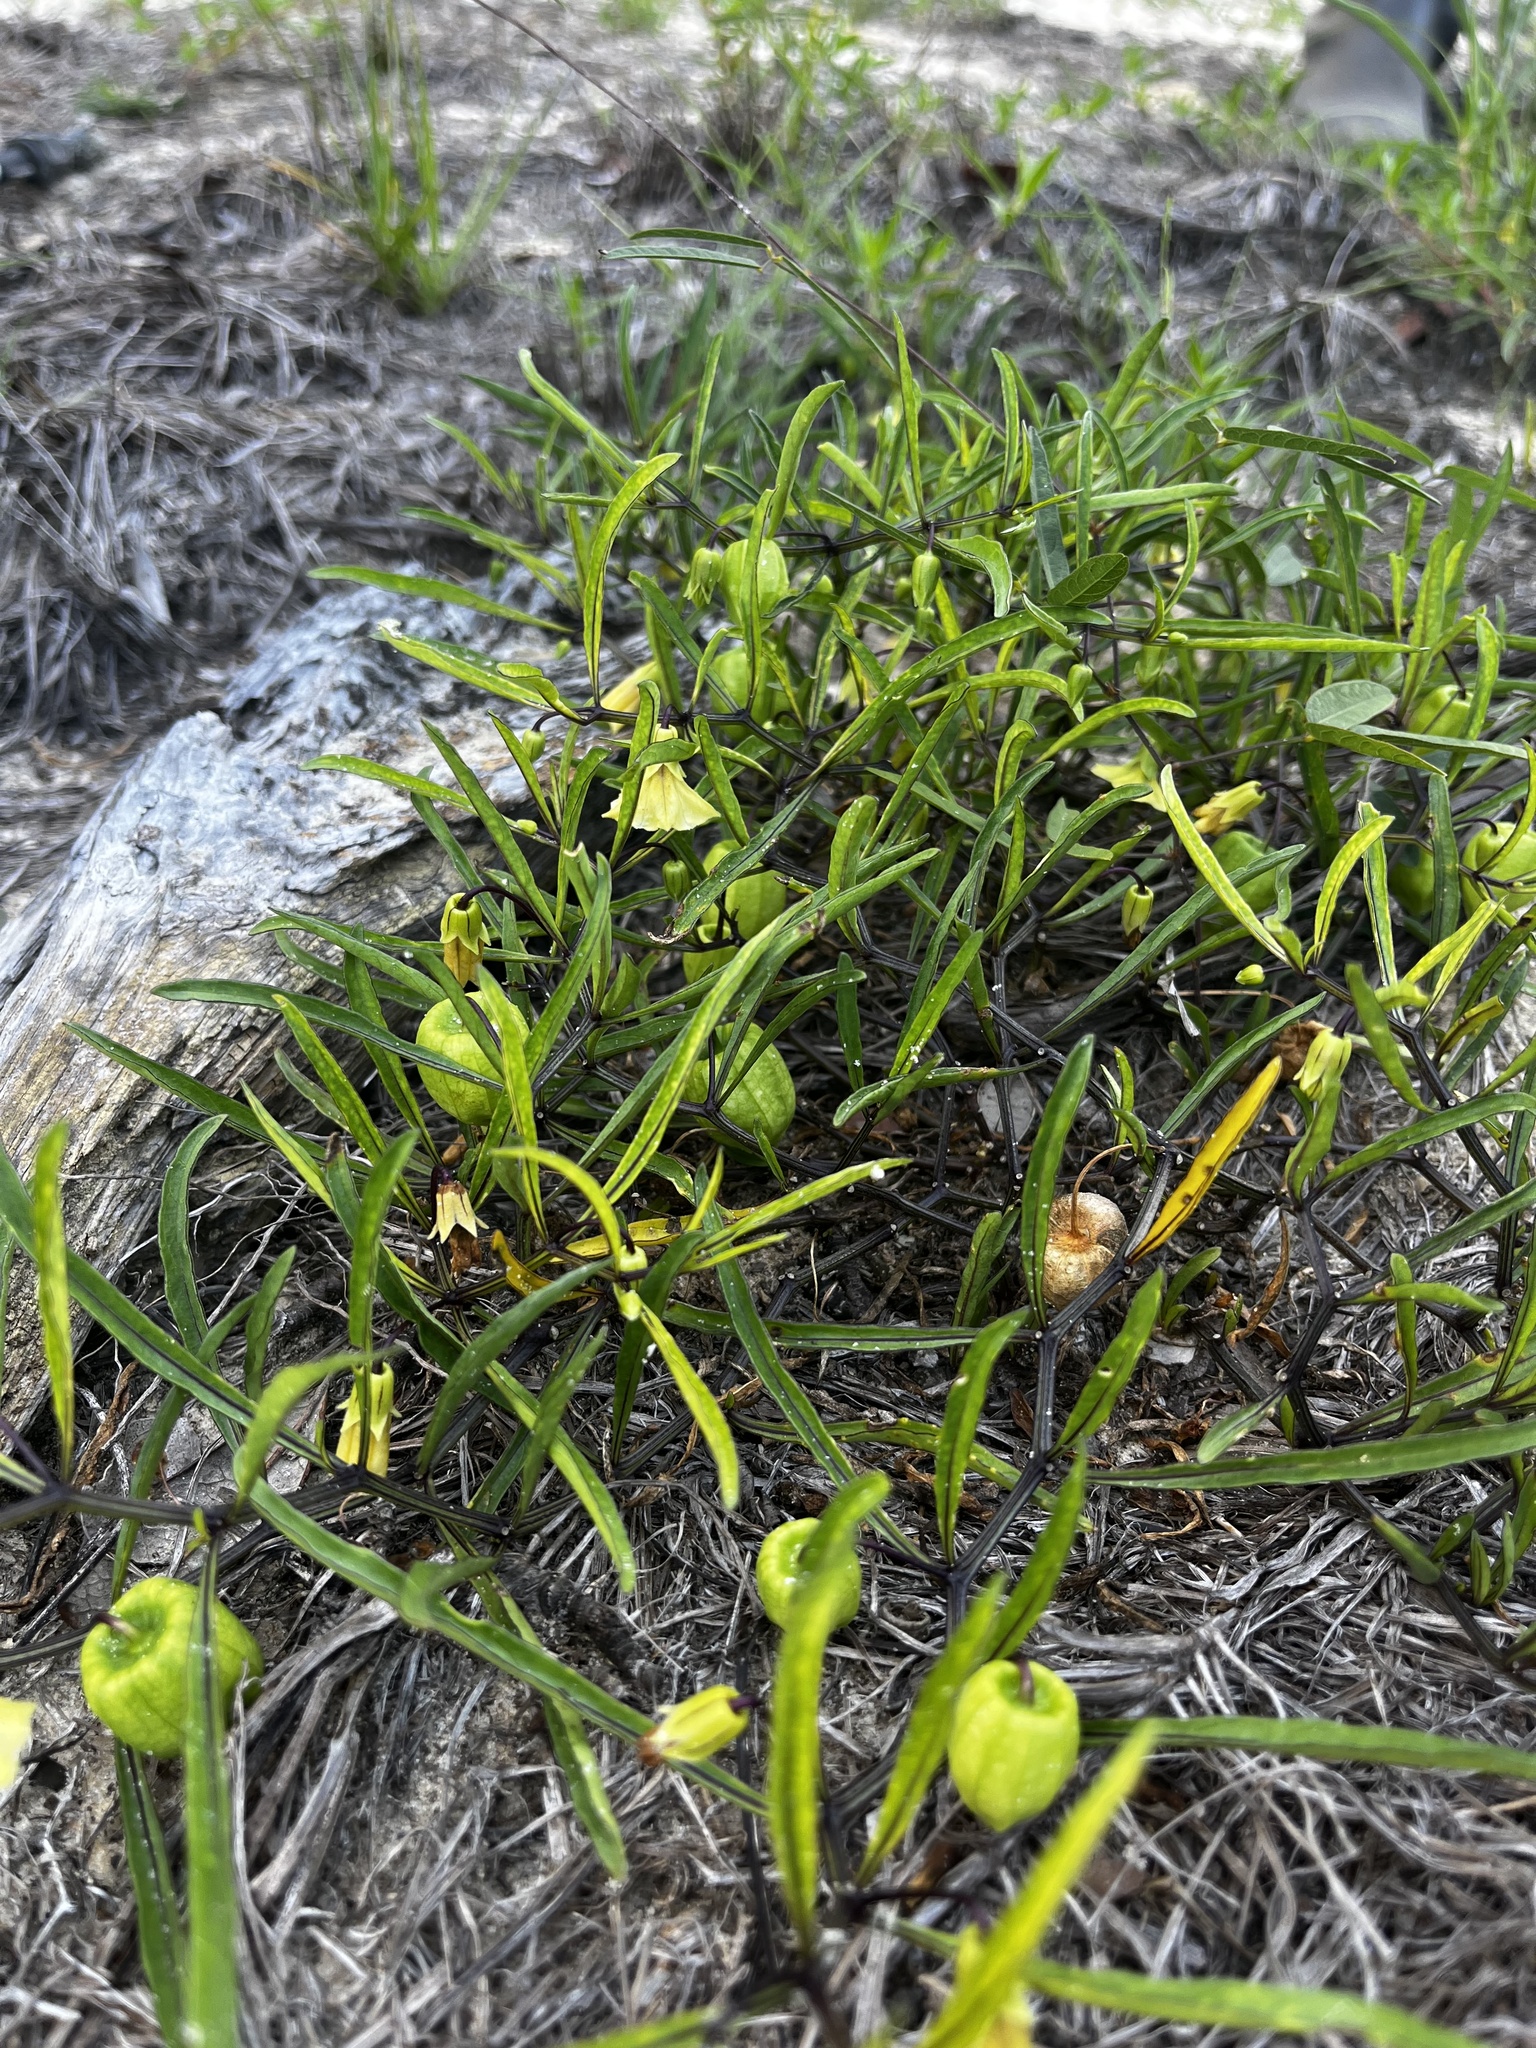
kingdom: Plantae
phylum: Tracheophyta
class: Magnoliopsida
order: Solanales
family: Solanaceae
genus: Physalis
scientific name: Physalis angustifolia
